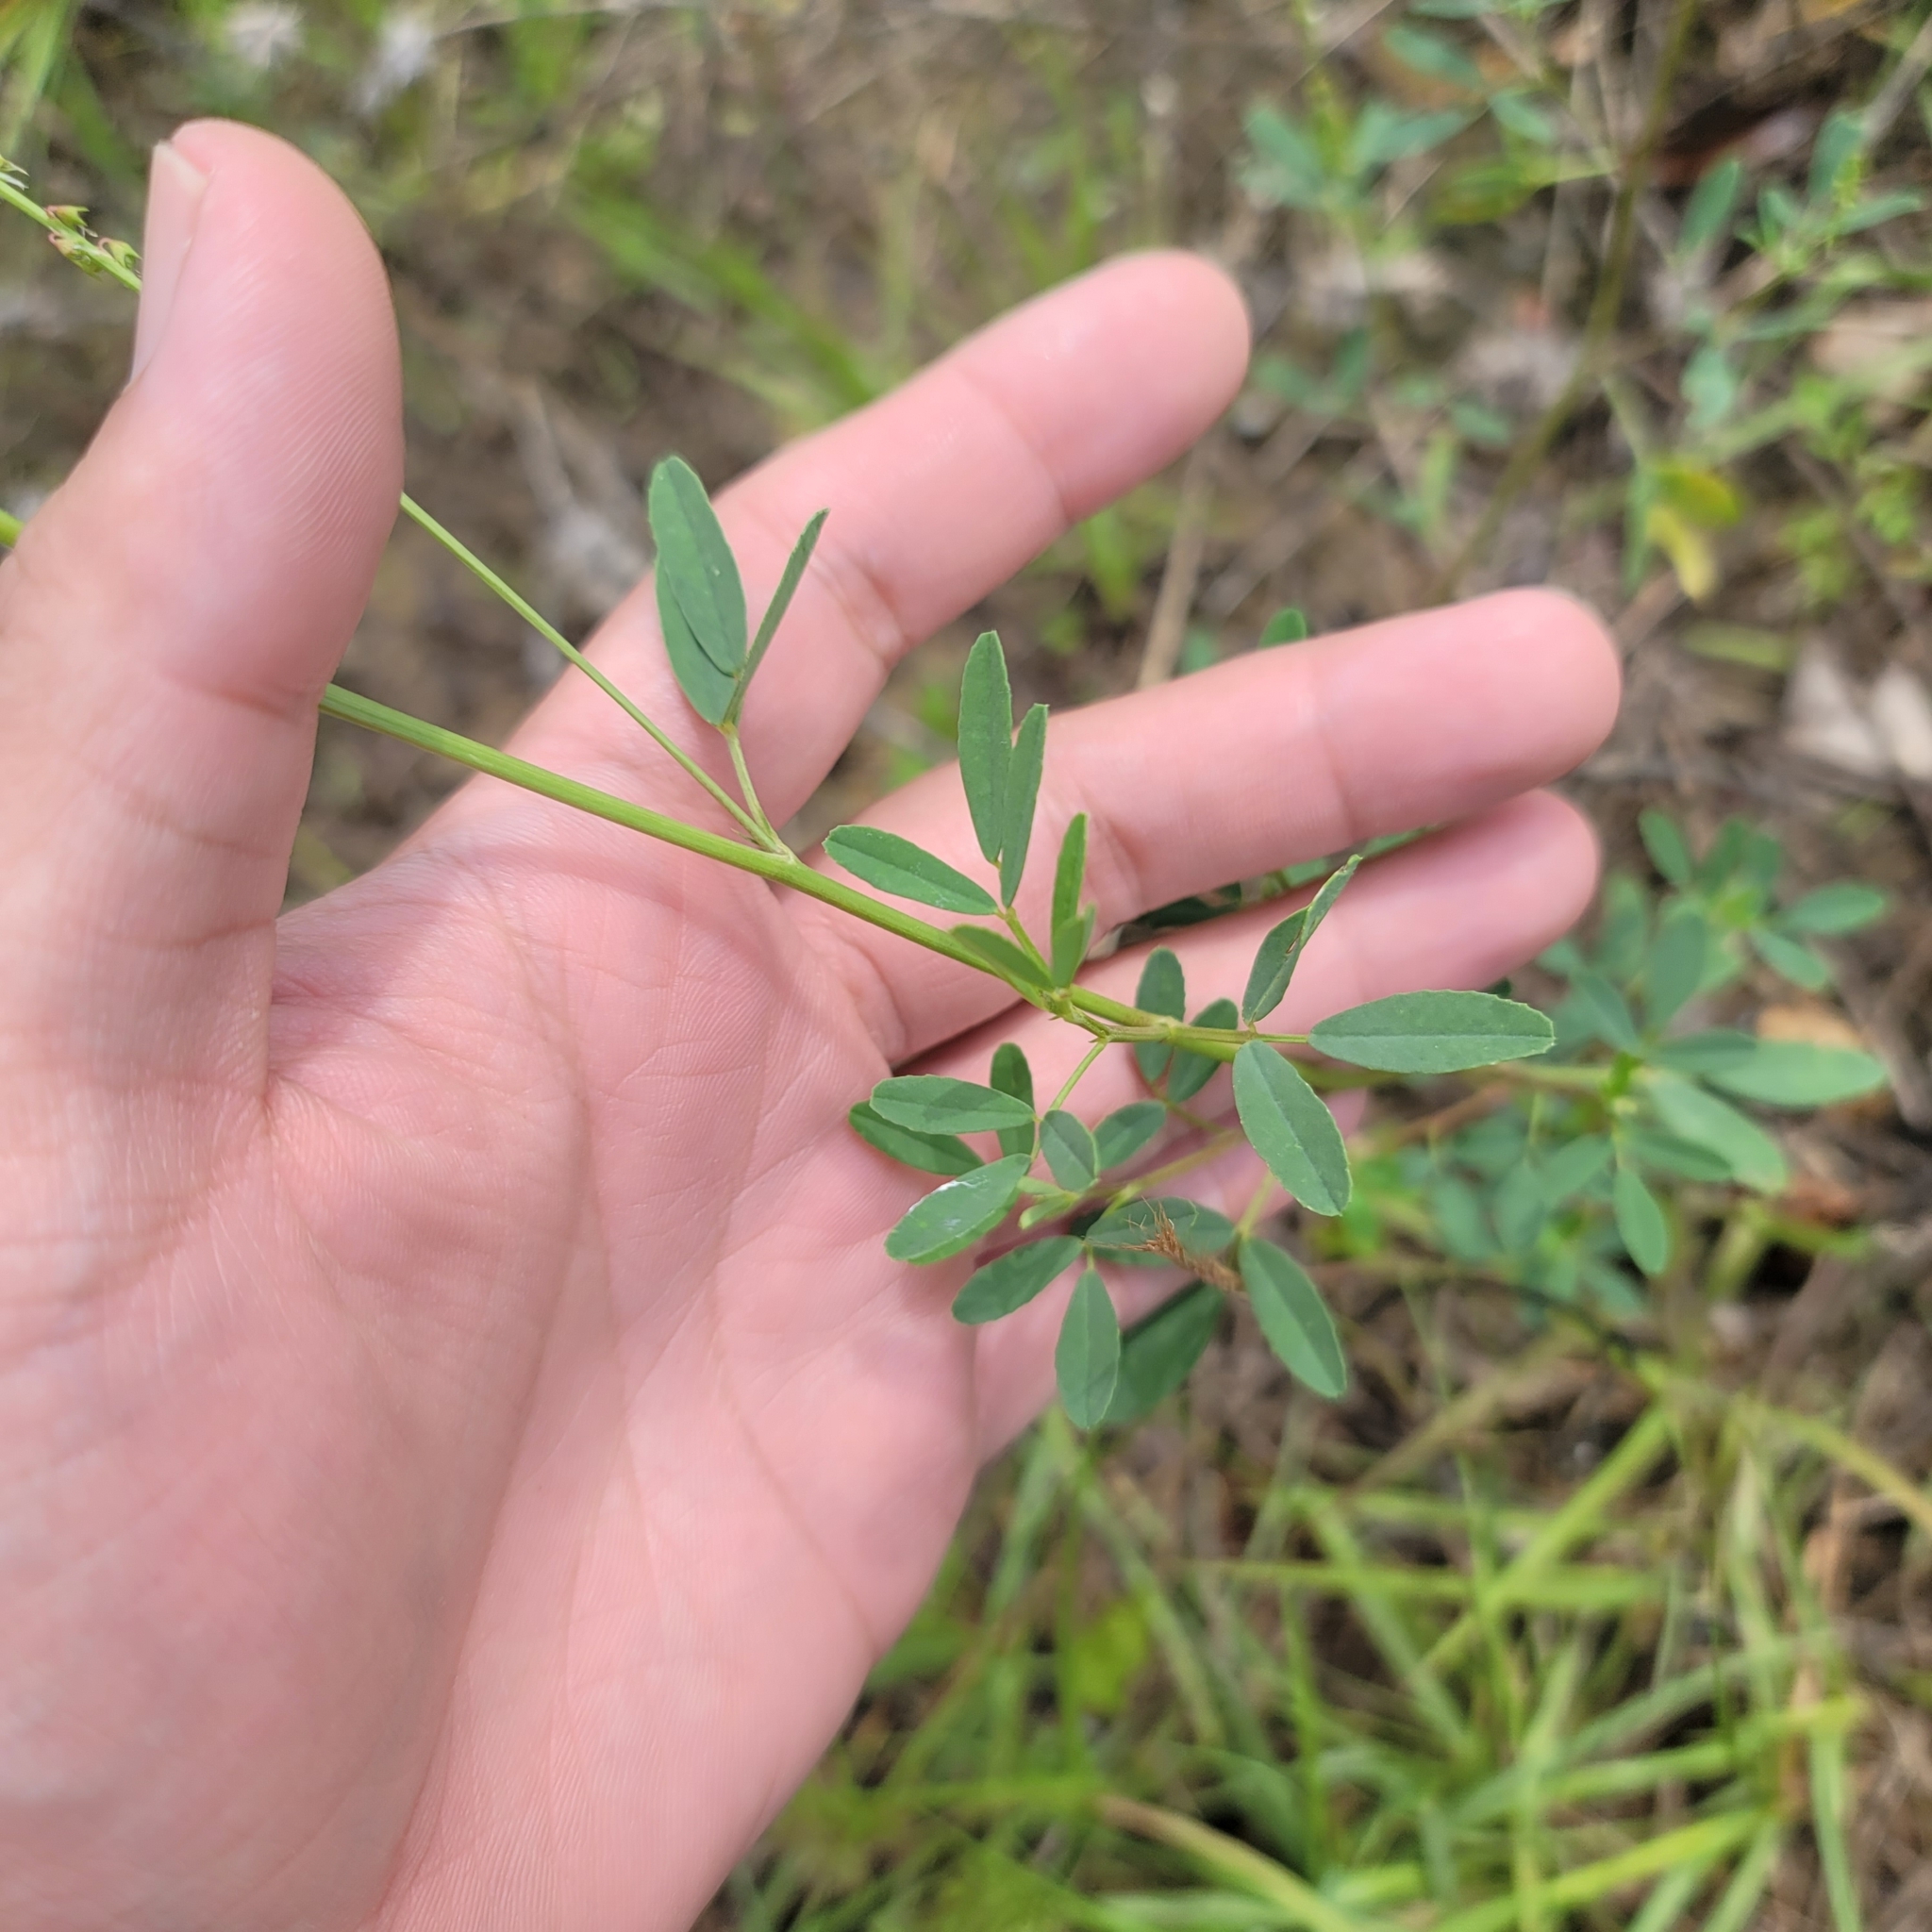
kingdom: Plantae
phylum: Tracheophyta
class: Magnoliopsida
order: Fabales
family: Fabaceae
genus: Melilotus
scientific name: Melilotus albus
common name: White melilot
